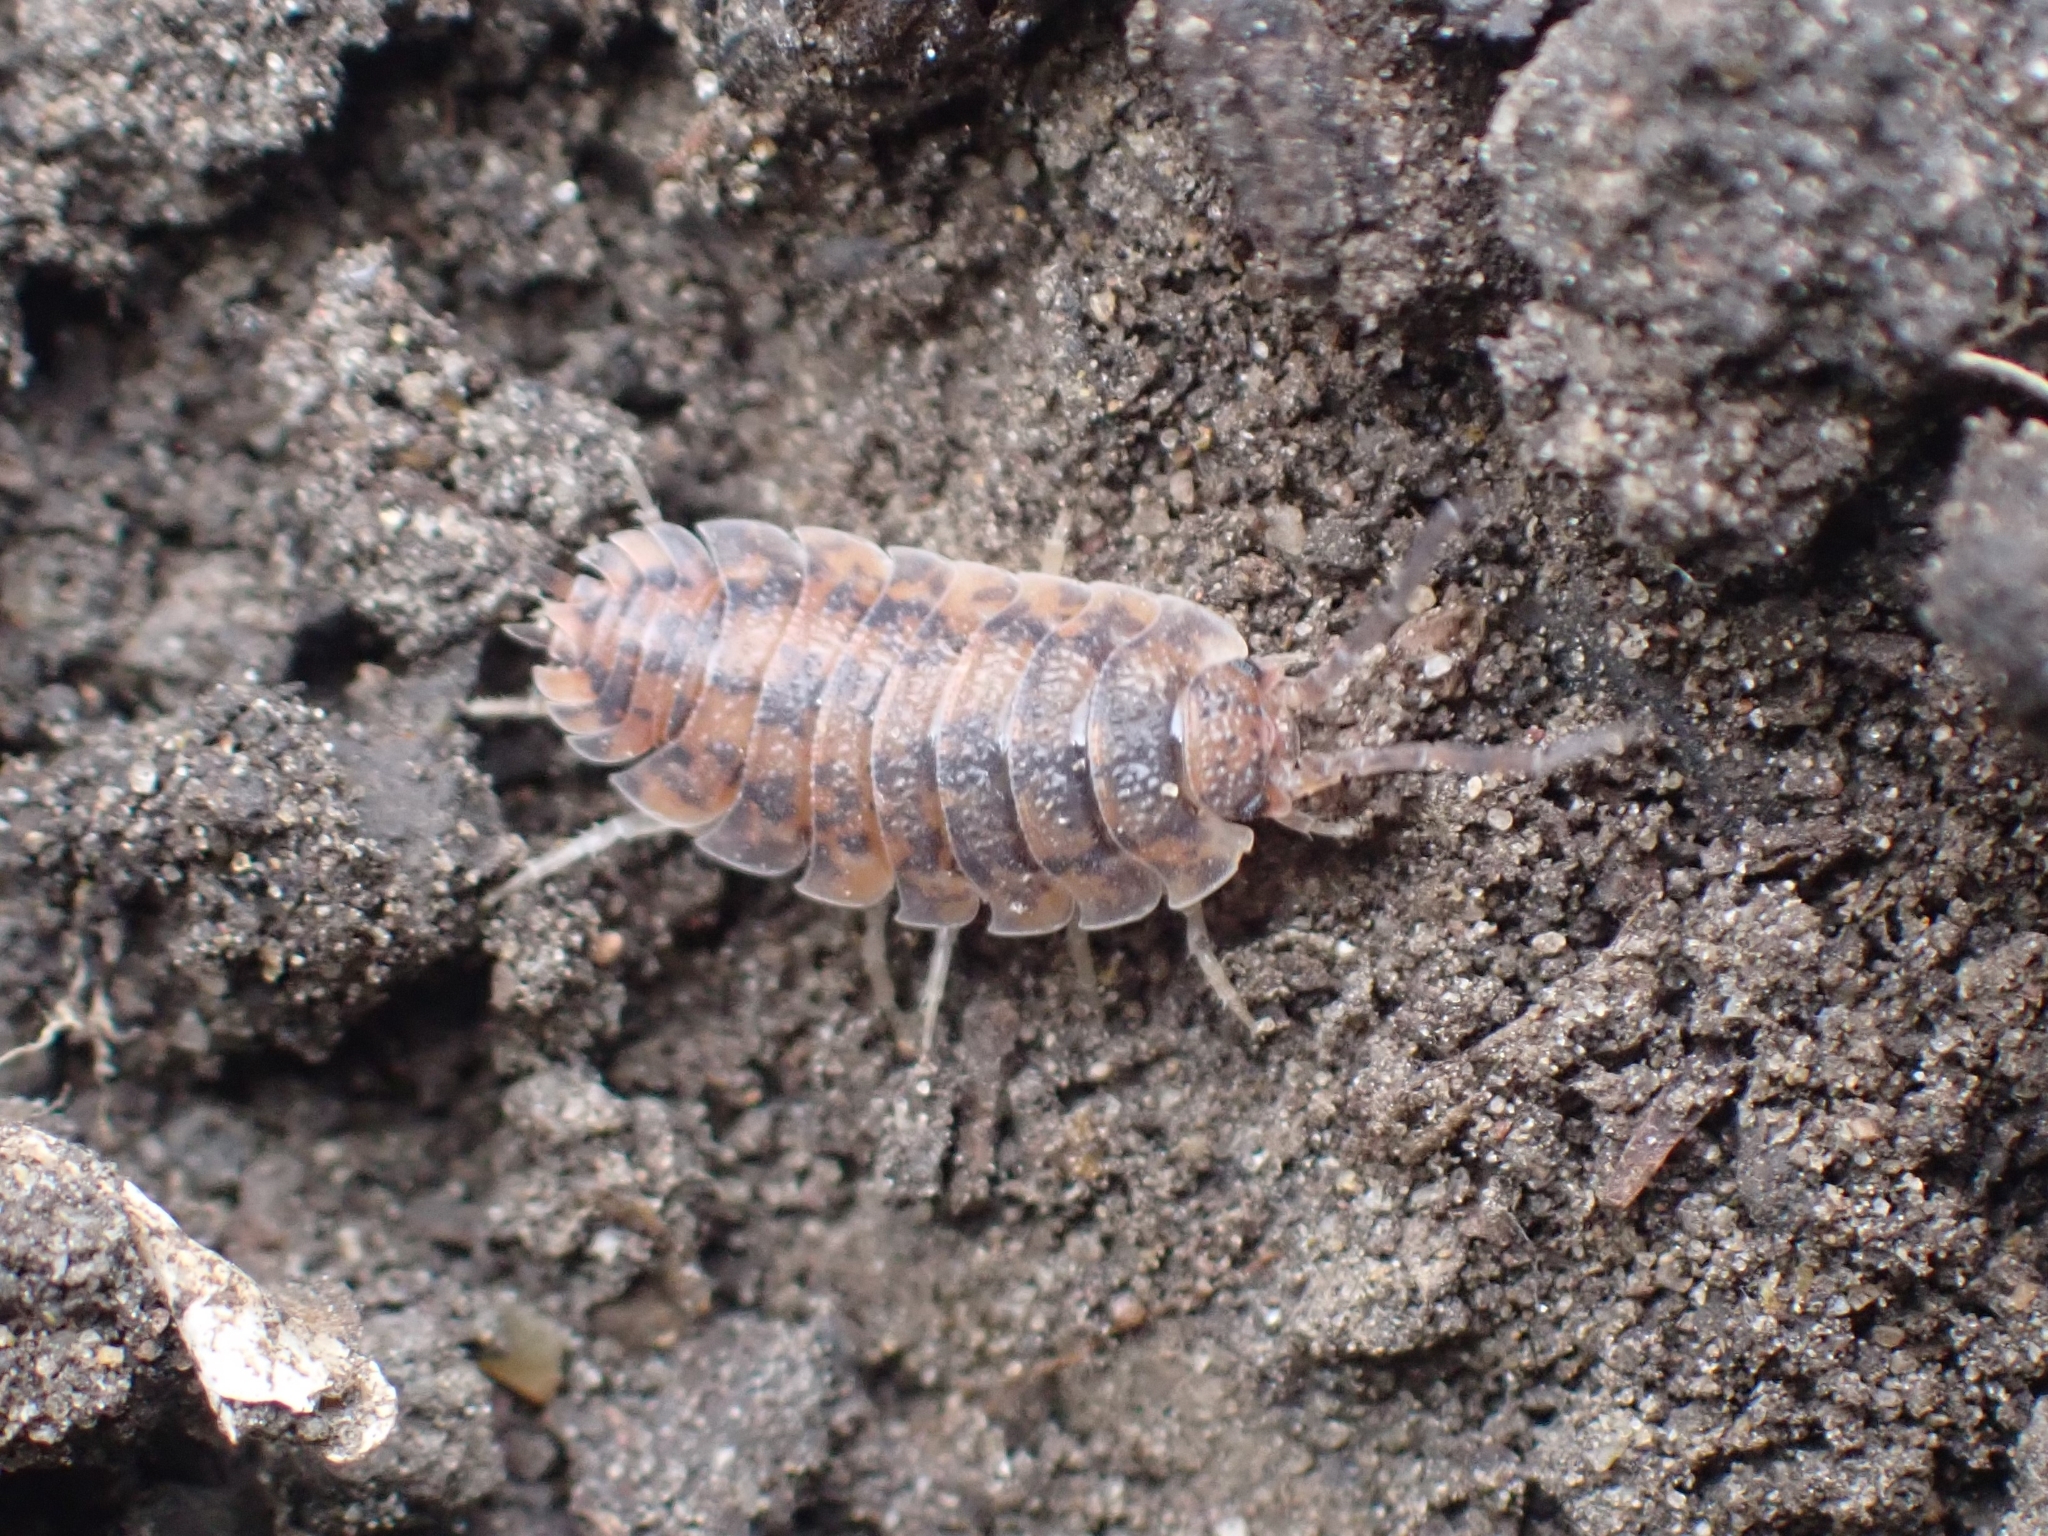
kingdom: Animalia
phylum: Arthropoda
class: Malacostraca
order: Isopoda
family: Porcellionidae
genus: Porcellio
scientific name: Porcellio scaber
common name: Common rough woodlouse
